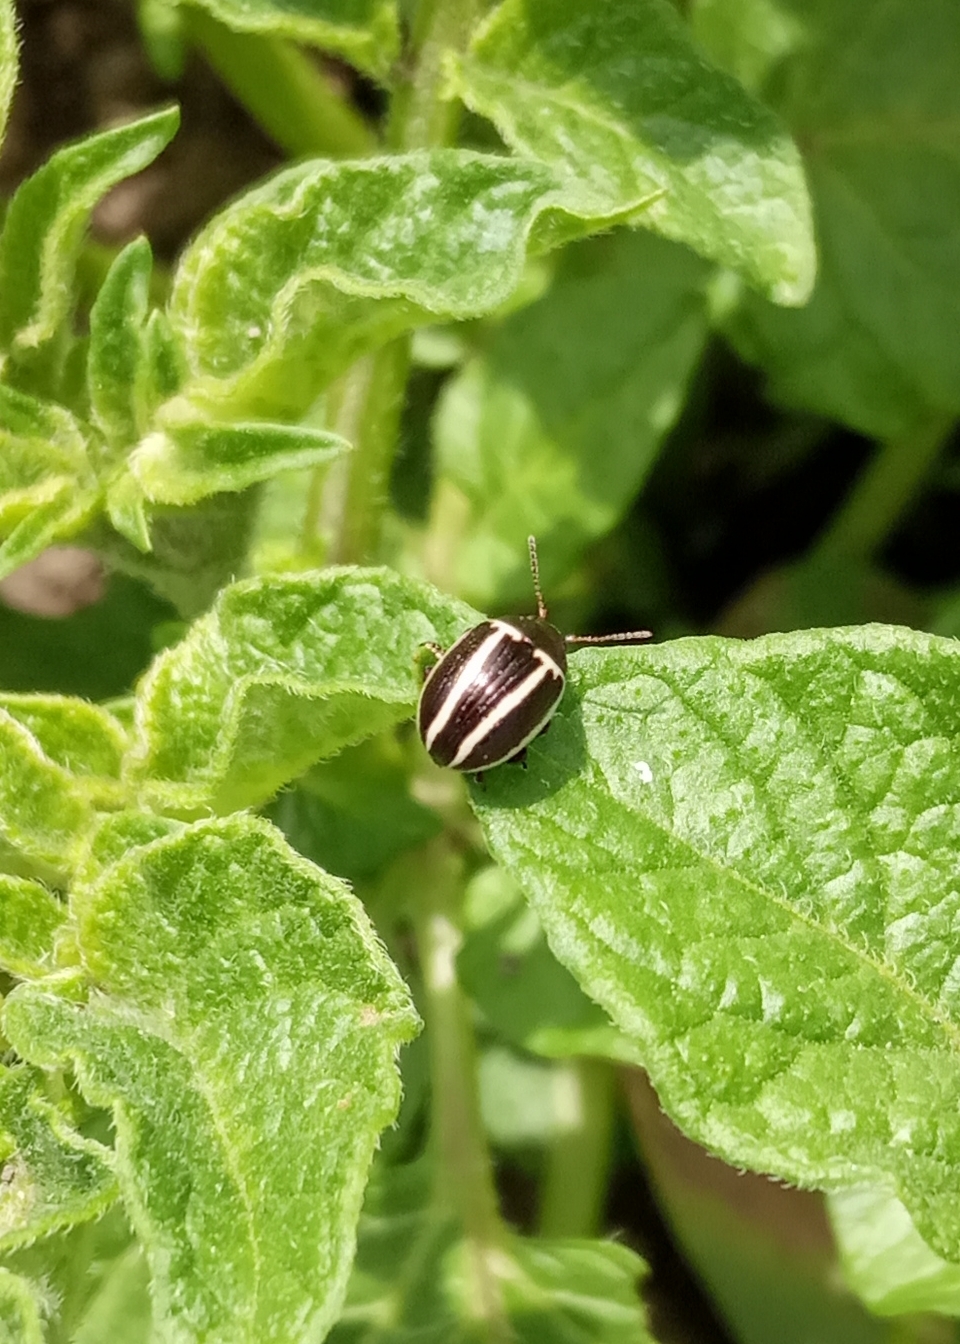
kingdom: Animalia
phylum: Arthropoda
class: Insecta
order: Coleoptera
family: Chrysomelidae
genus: Calligrapha
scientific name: Calligrapha
